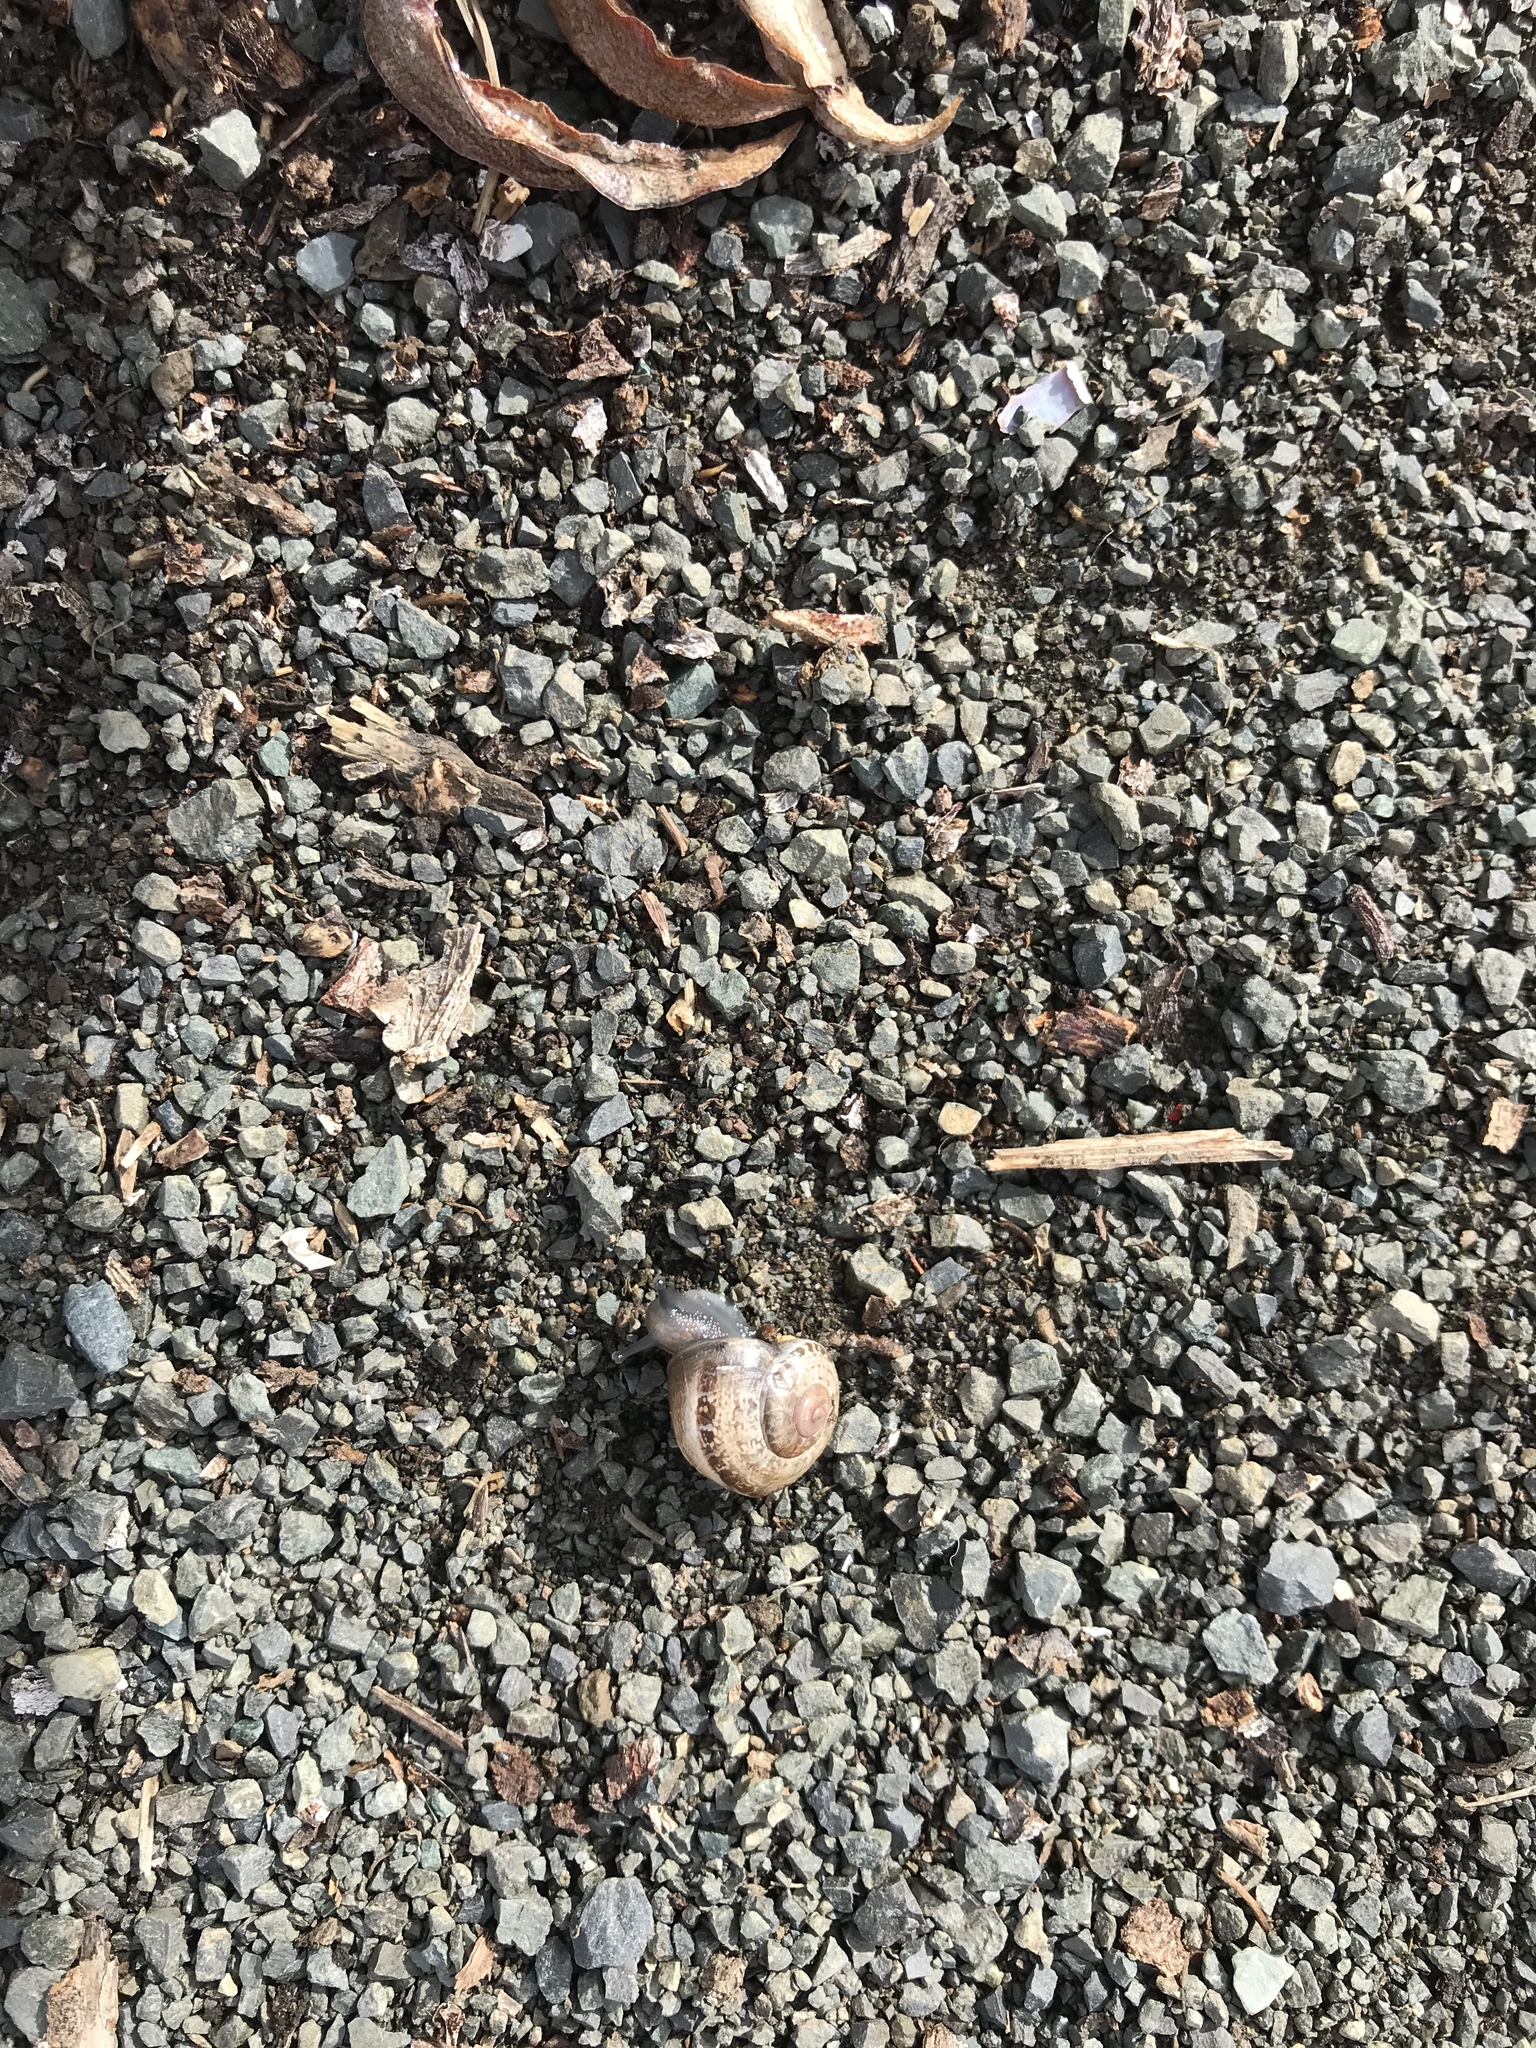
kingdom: Animalia
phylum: Mollusca
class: Gastropoda
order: Stylommatophora
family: Helicidae
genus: Otala
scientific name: Otala lactea
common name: Milk snail
